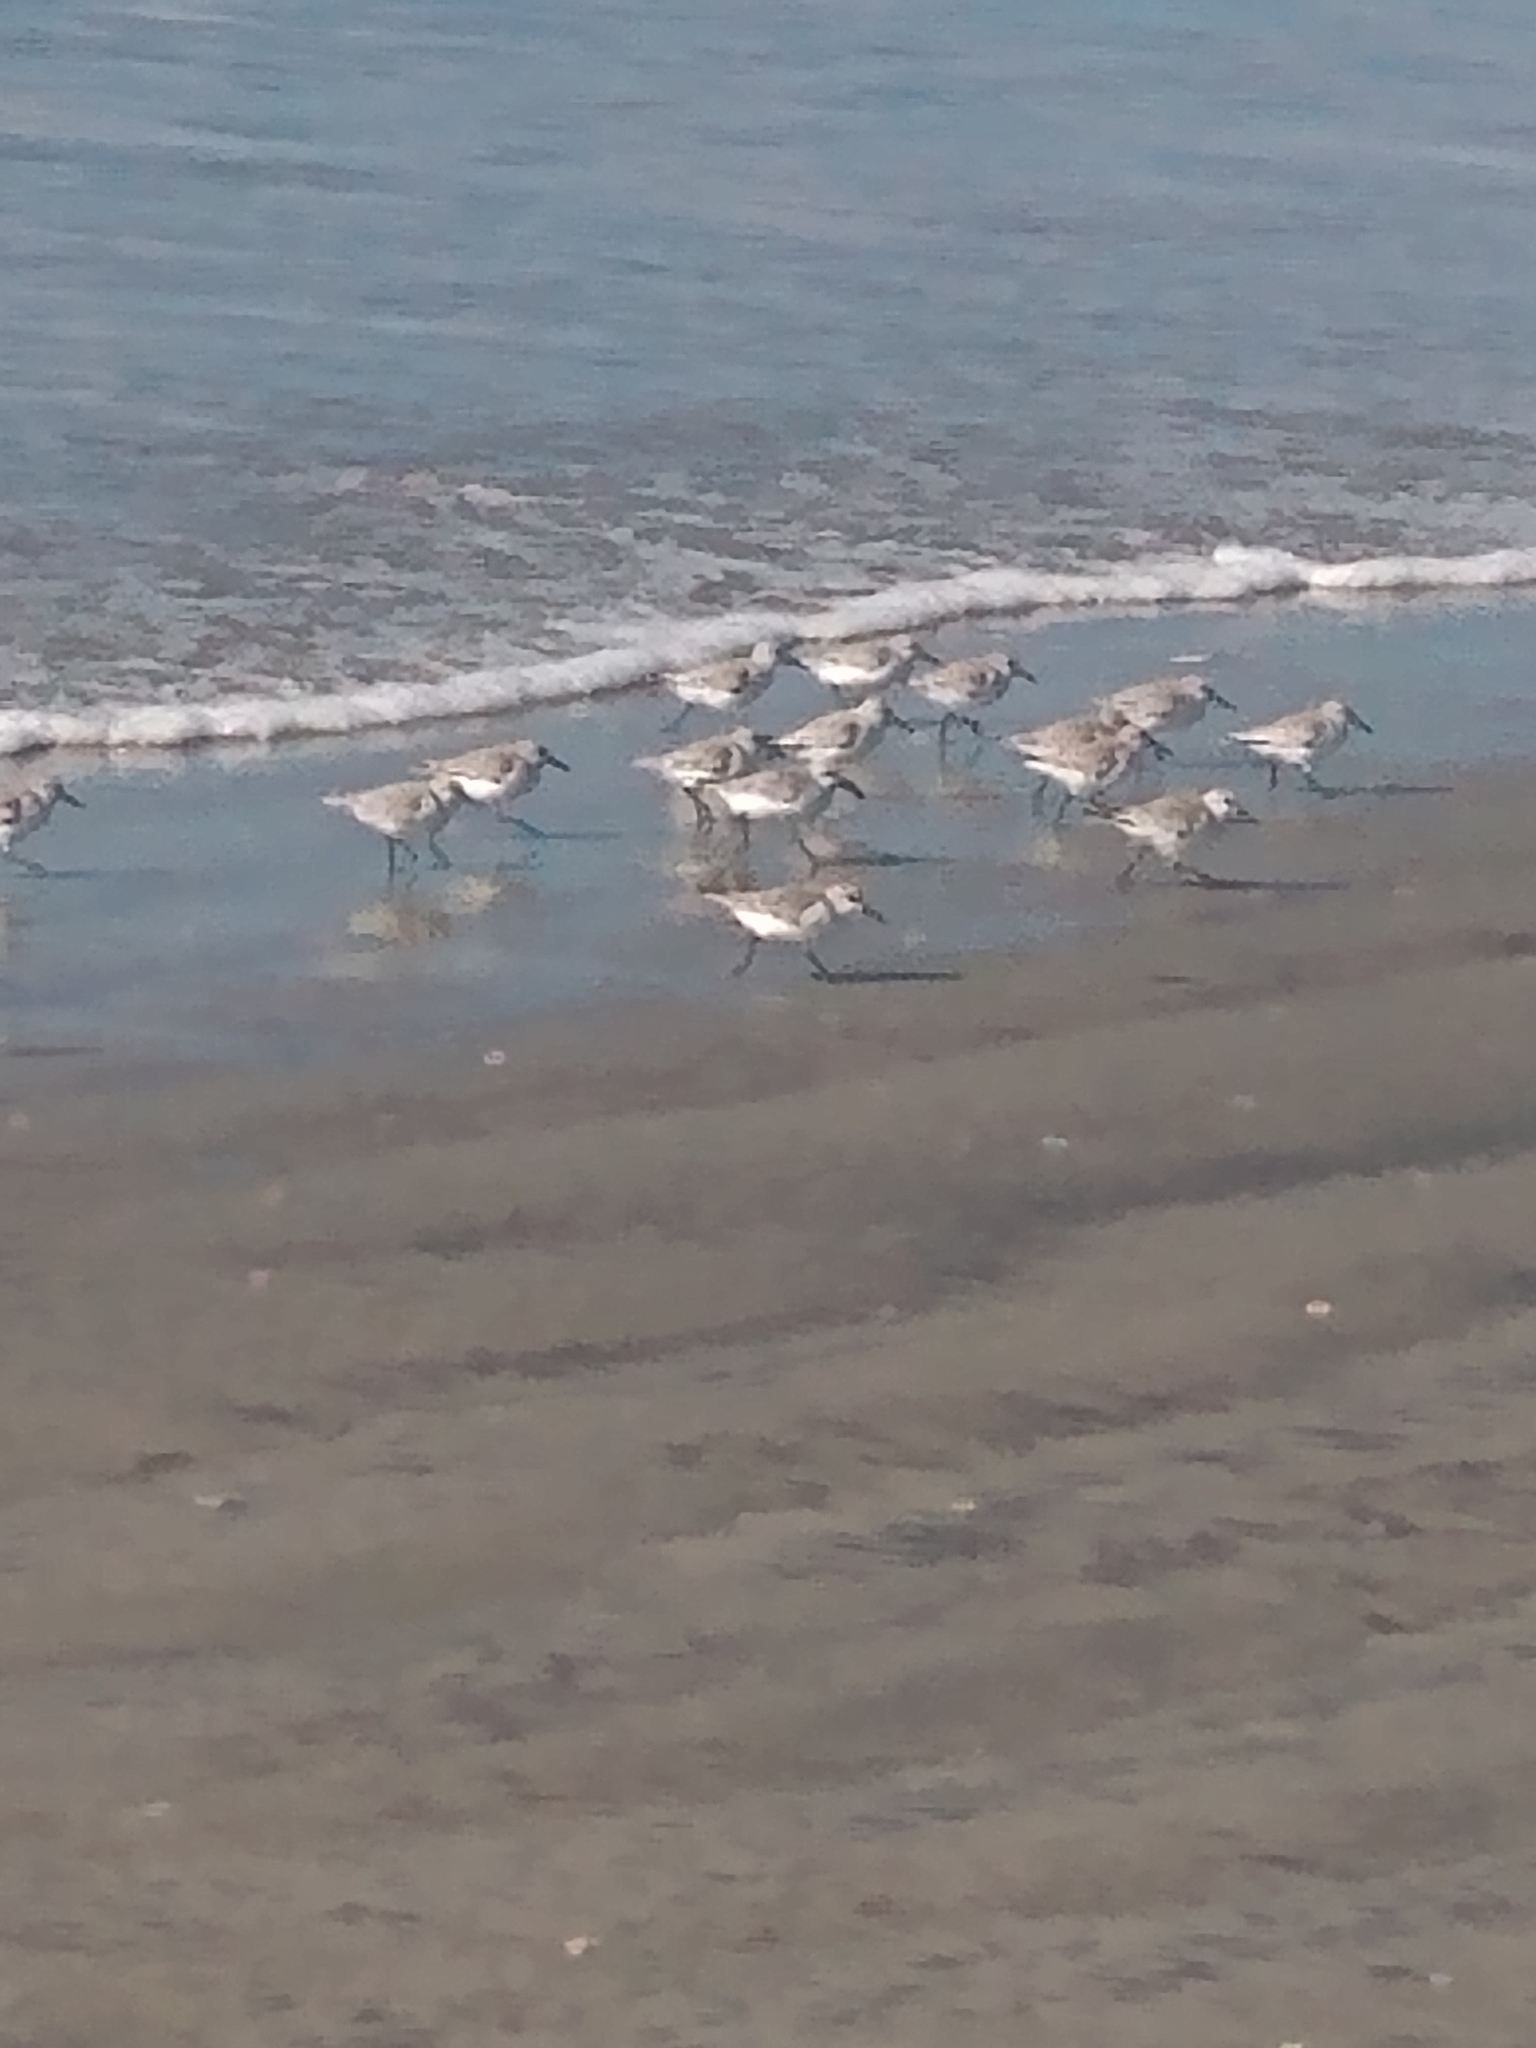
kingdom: Animalia
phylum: Chordata
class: Aves
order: Charadriiformes
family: Scolopacidae
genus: Calidris
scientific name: Calidris alba
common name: Sanderling
